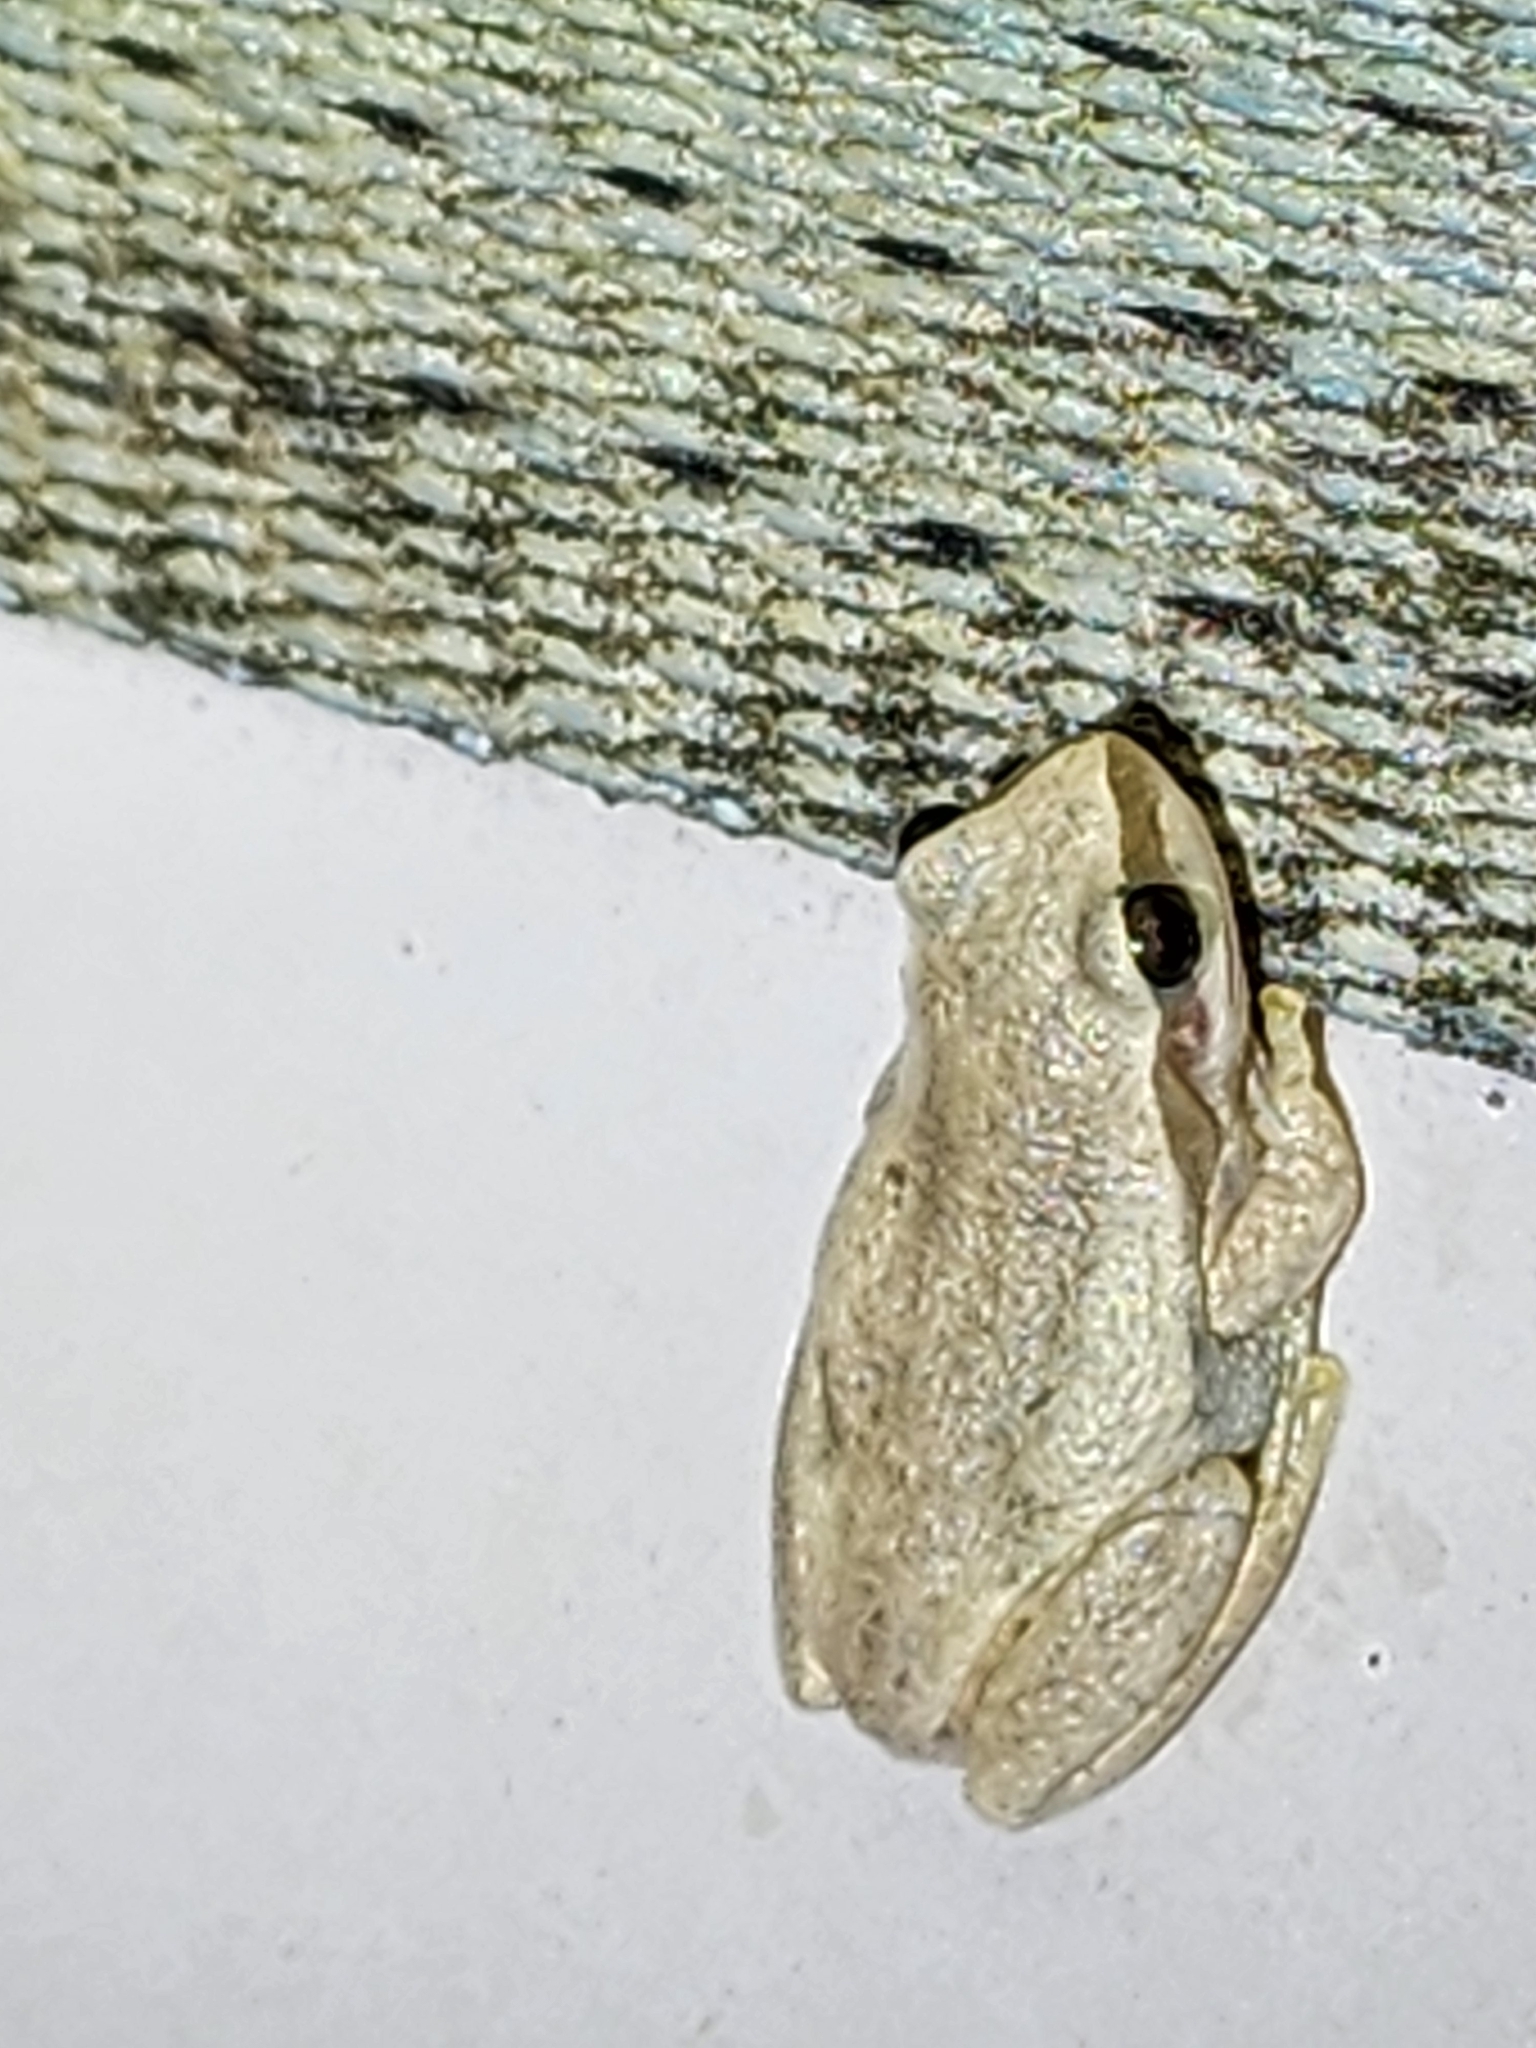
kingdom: Animalia
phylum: Chordata
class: Amphibia
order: Anura
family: Pelodryadidae
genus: Litoria
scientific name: Litoria rubella
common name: Desert tree frog
